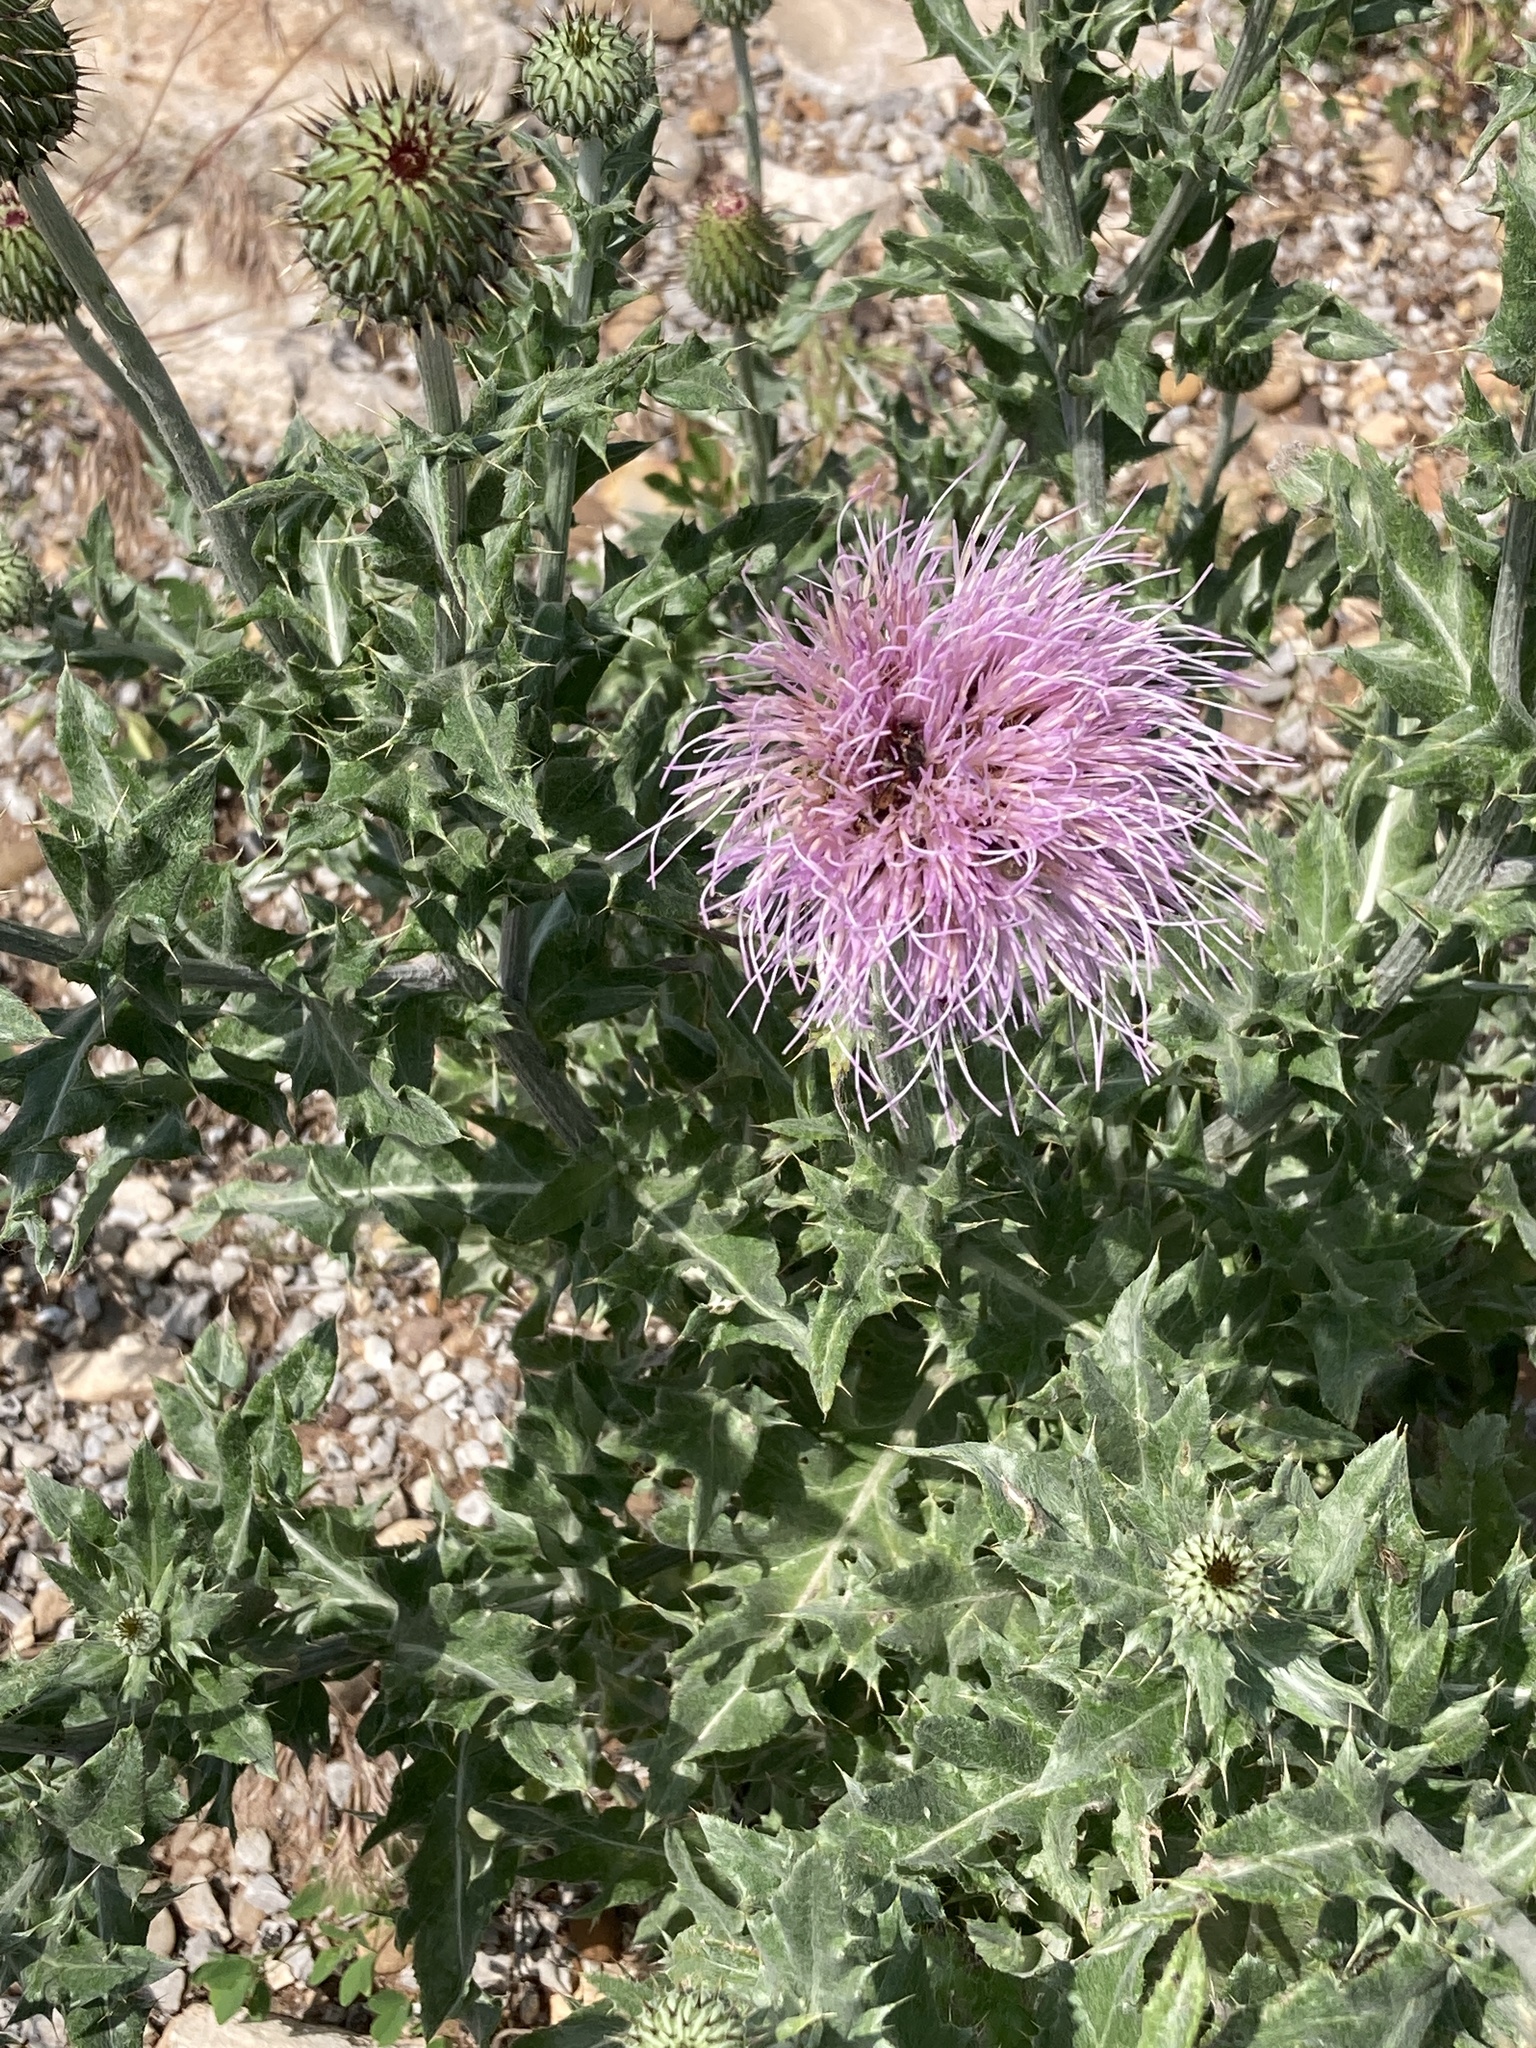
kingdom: Plantae
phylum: Tracheophyta
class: Magnoliopsida
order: Asterales
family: Asteraceae
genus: Cirsium
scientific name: Cirsium undulatum
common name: Pasture thistle
